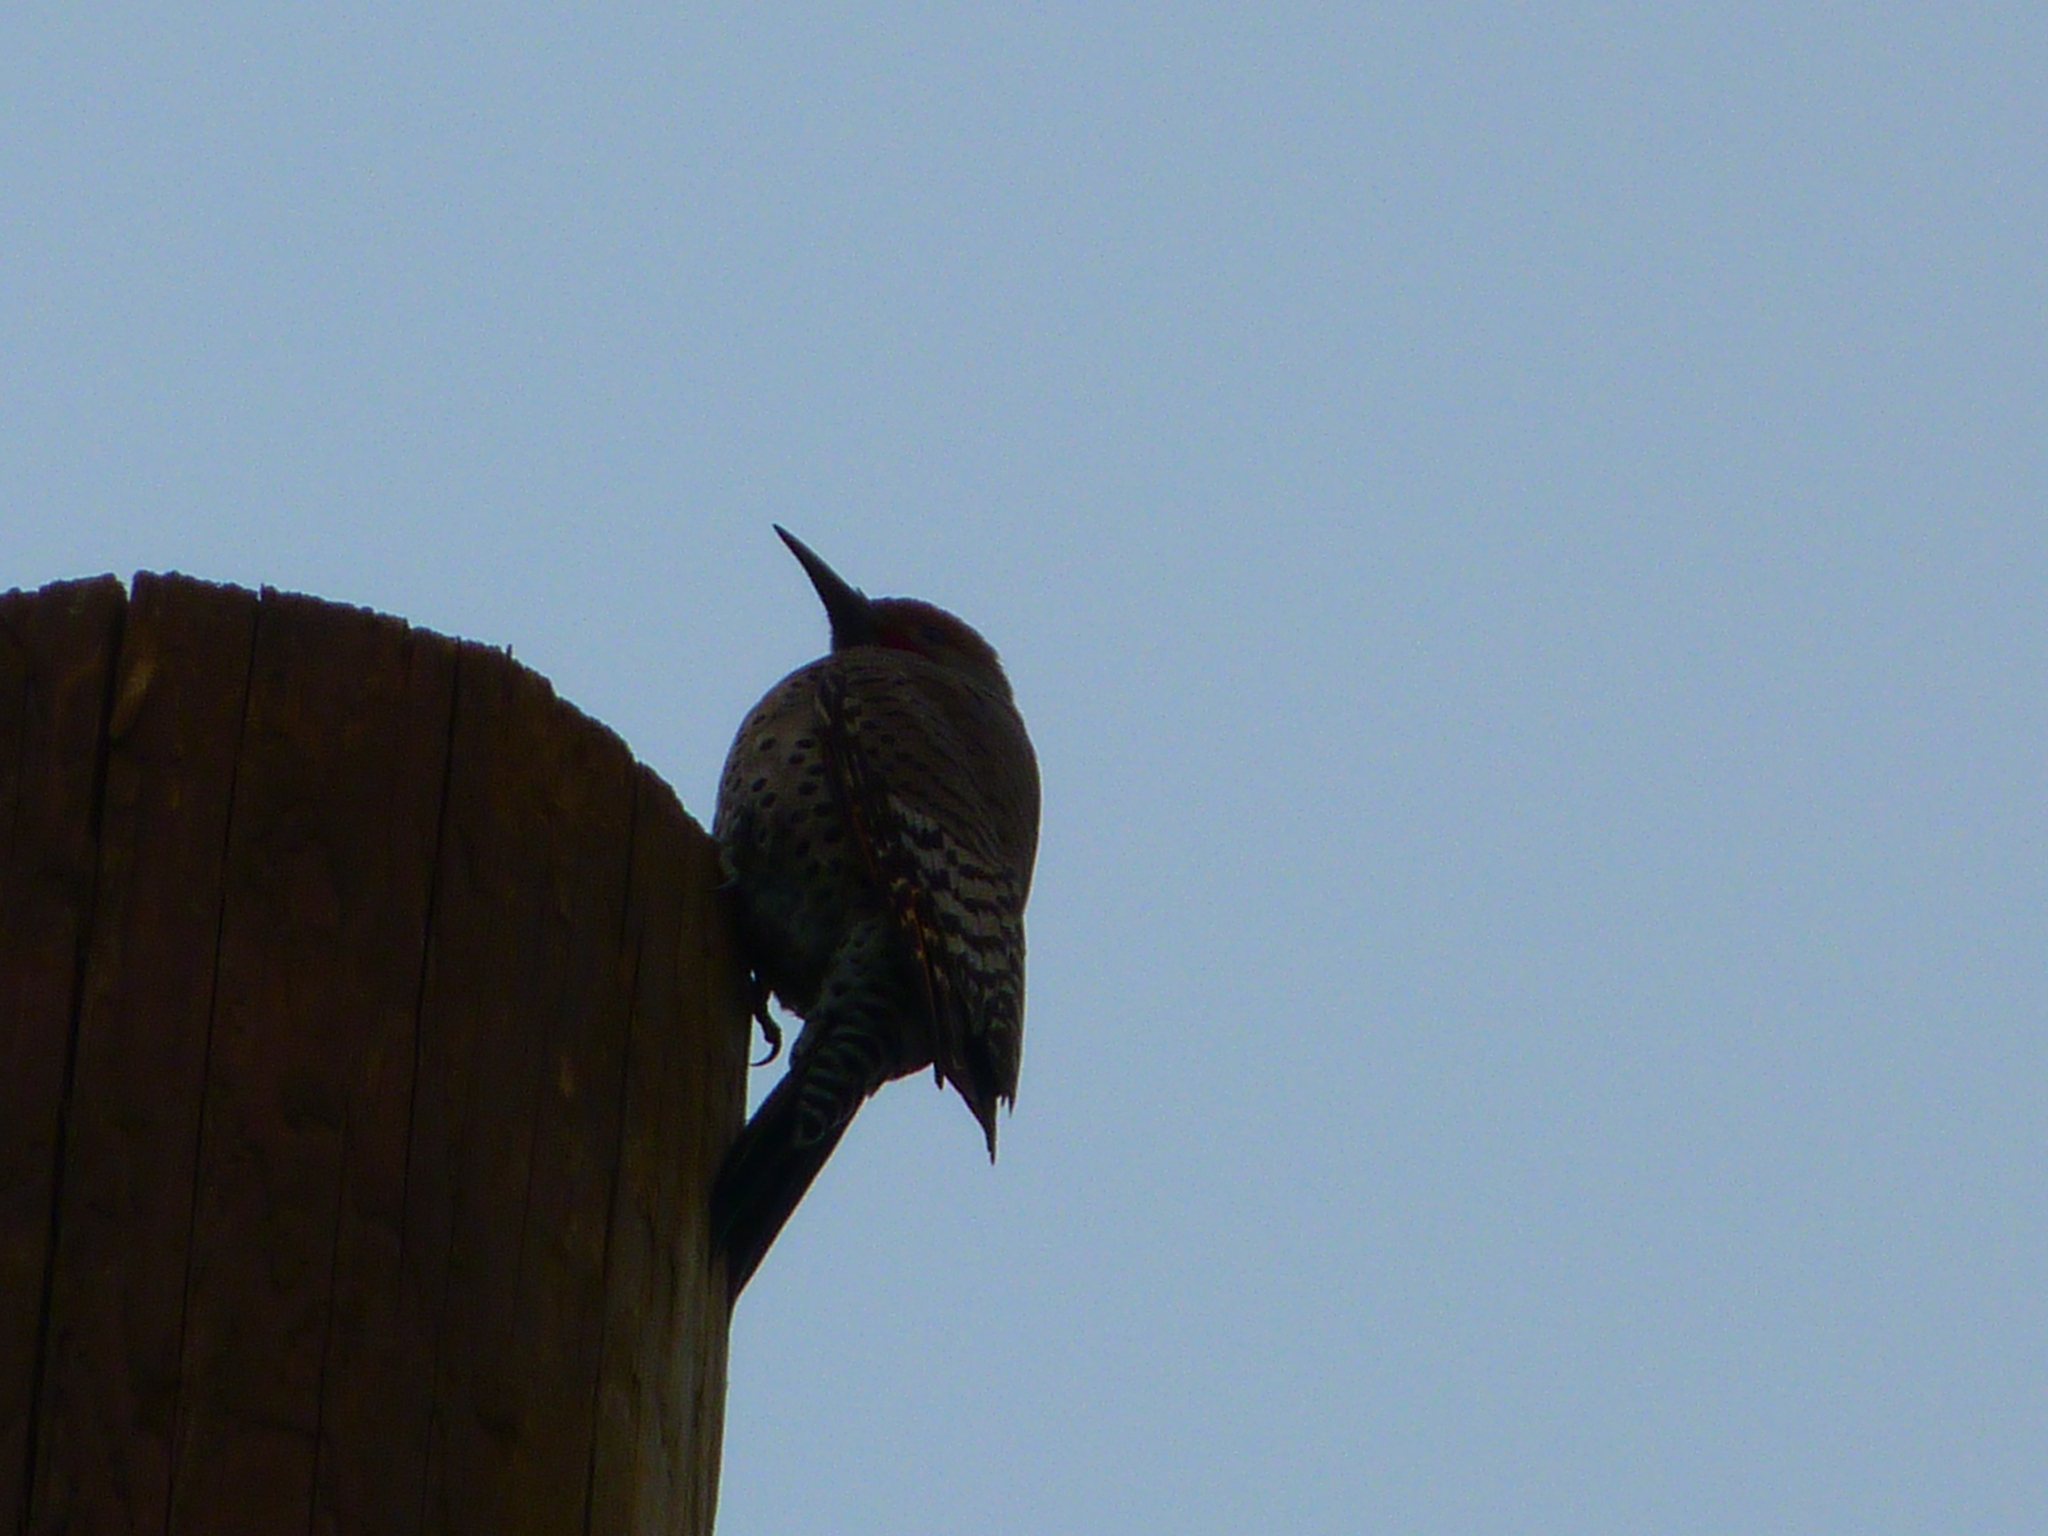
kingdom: Animalia
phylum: Chordata
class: Aves
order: Piciformes
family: Picidae
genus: Colaptes
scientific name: Colaptes auratus
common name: Northern flicker
